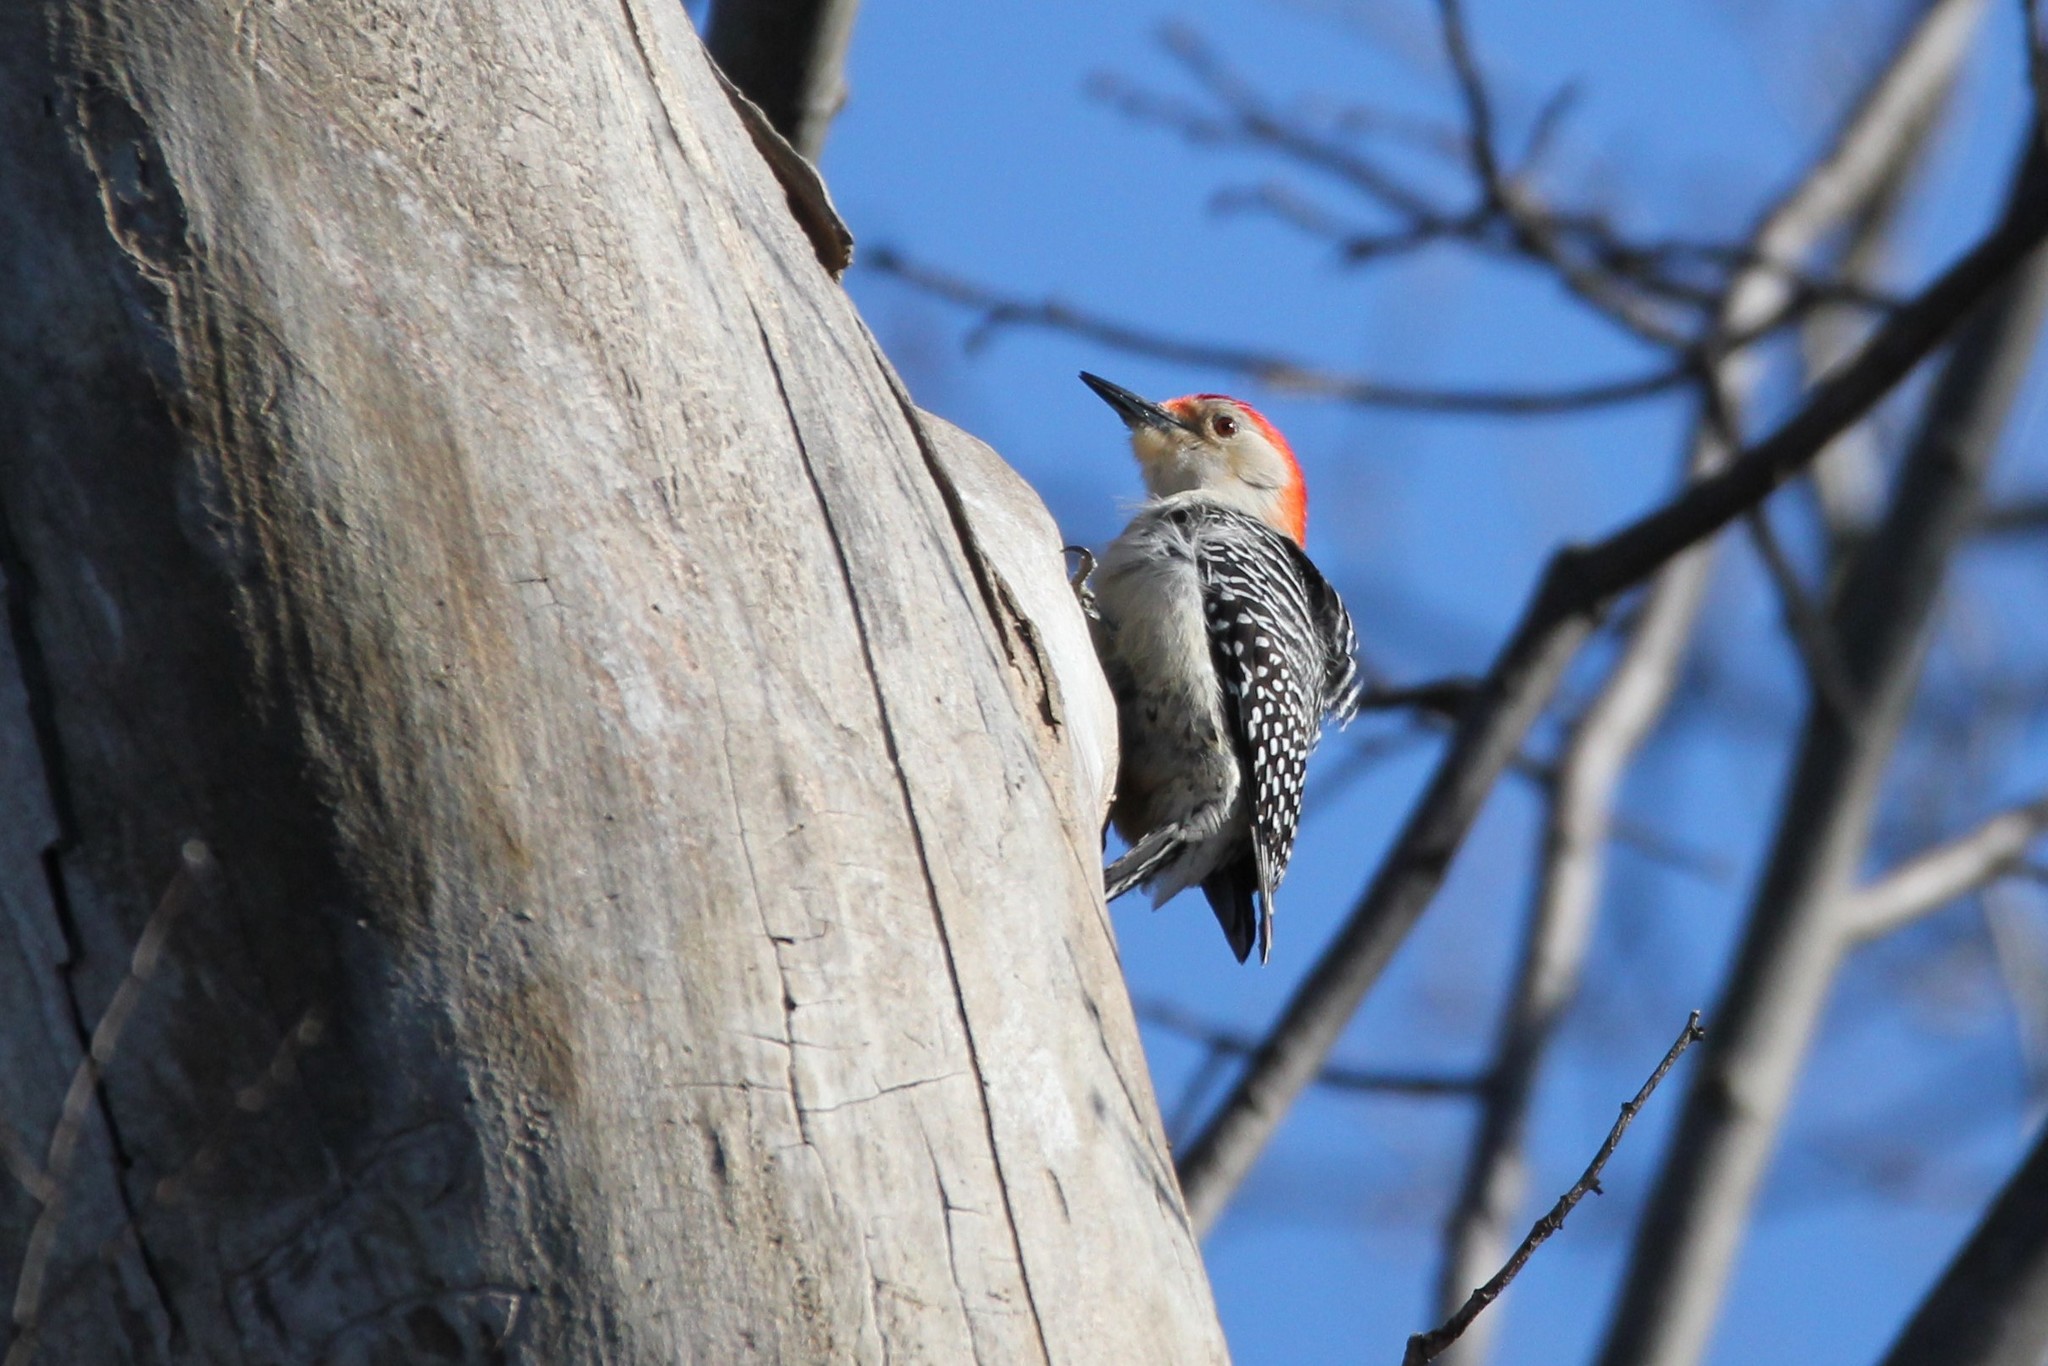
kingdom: Animalia
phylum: Chordata
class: Aves
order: Piciformes
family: Picidae
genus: Melanerpes
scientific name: Melanerpes carolinus
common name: Red-bellied woodpecker
